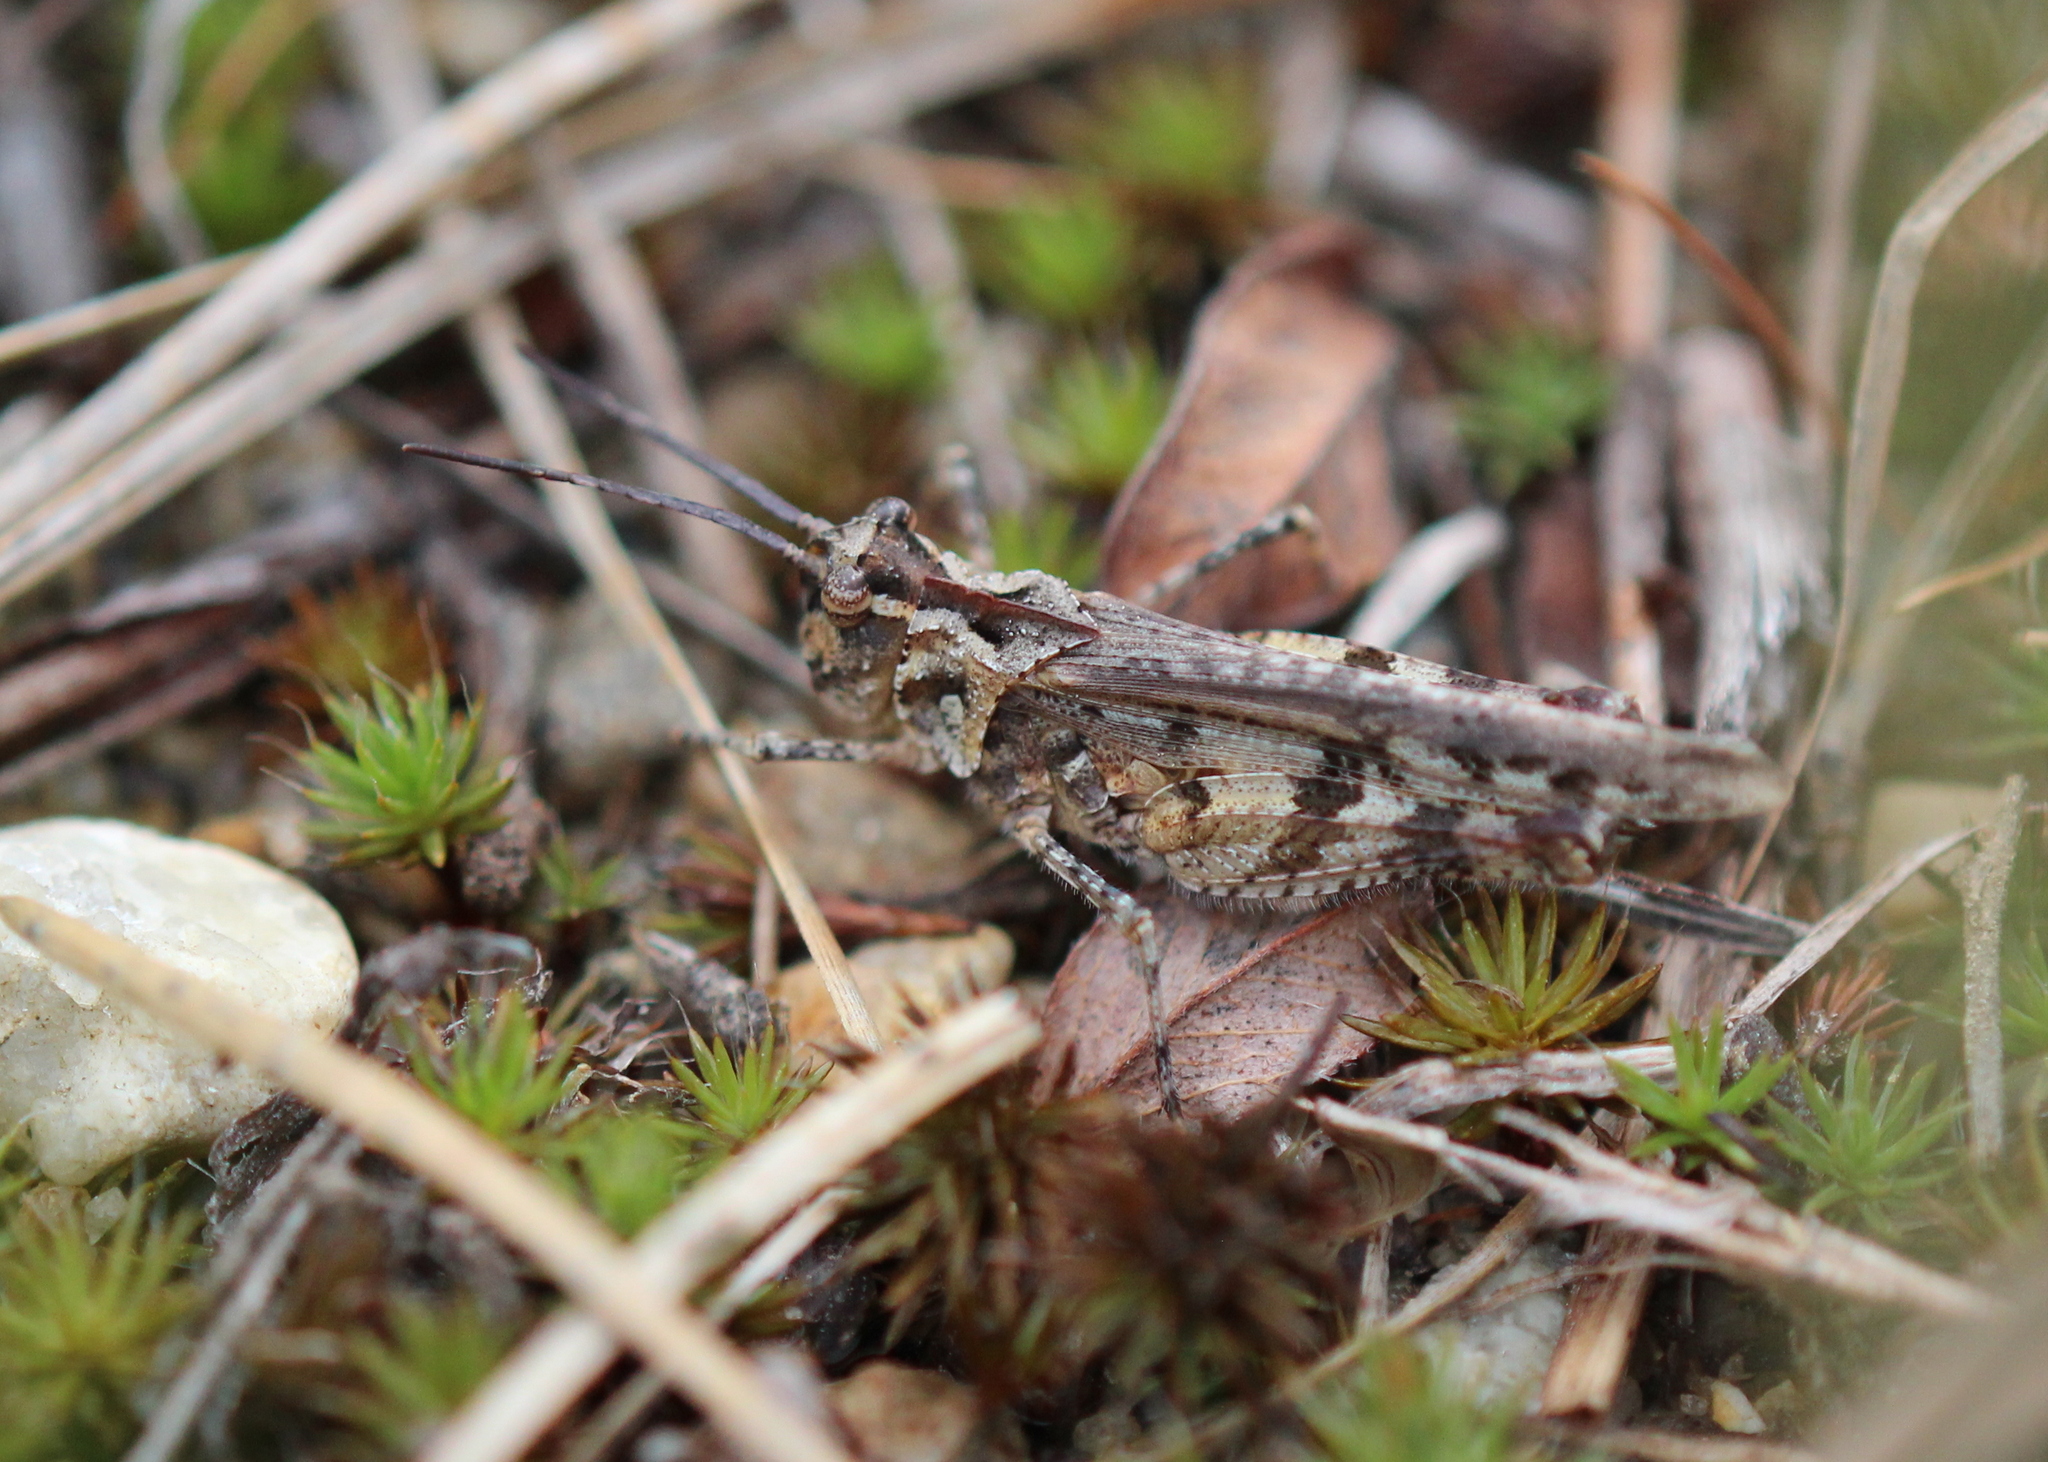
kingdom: Animalia
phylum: Arthropoda
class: Insecta
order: Orthoptera
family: Acrididae
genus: Psinidia
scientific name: Psinidia fenestralis
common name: Long-horned locust
